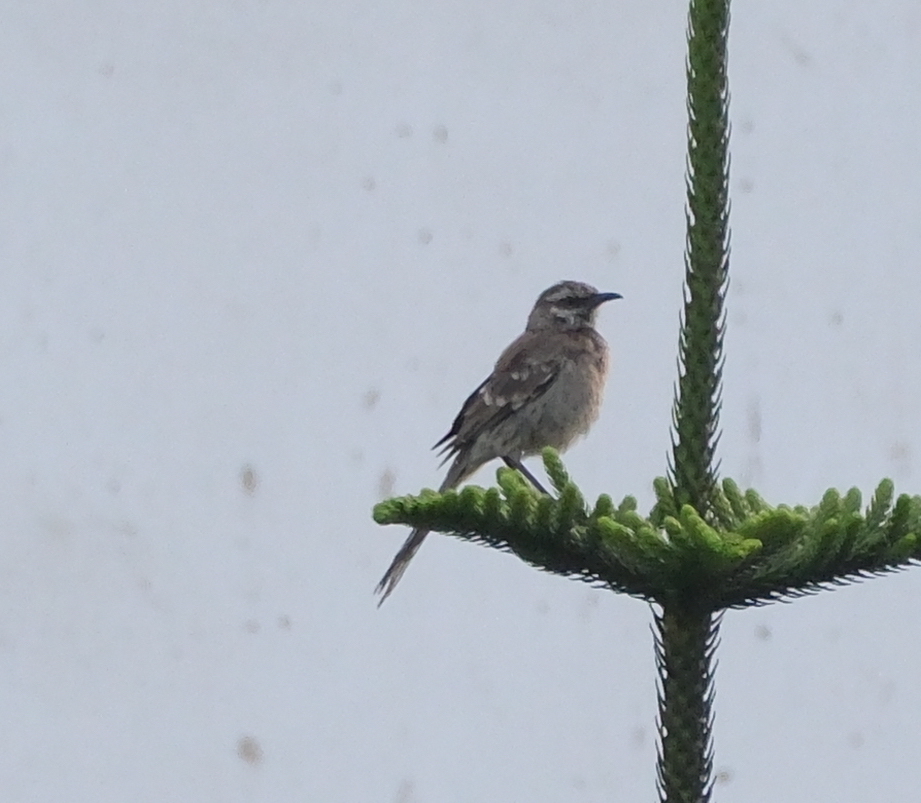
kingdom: Animalia
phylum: Chordata
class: Aves
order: Passeriformes
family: Mimidae
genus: Mimus
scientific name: Mimus longicaudatus
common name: Long-tailed mockingbird
